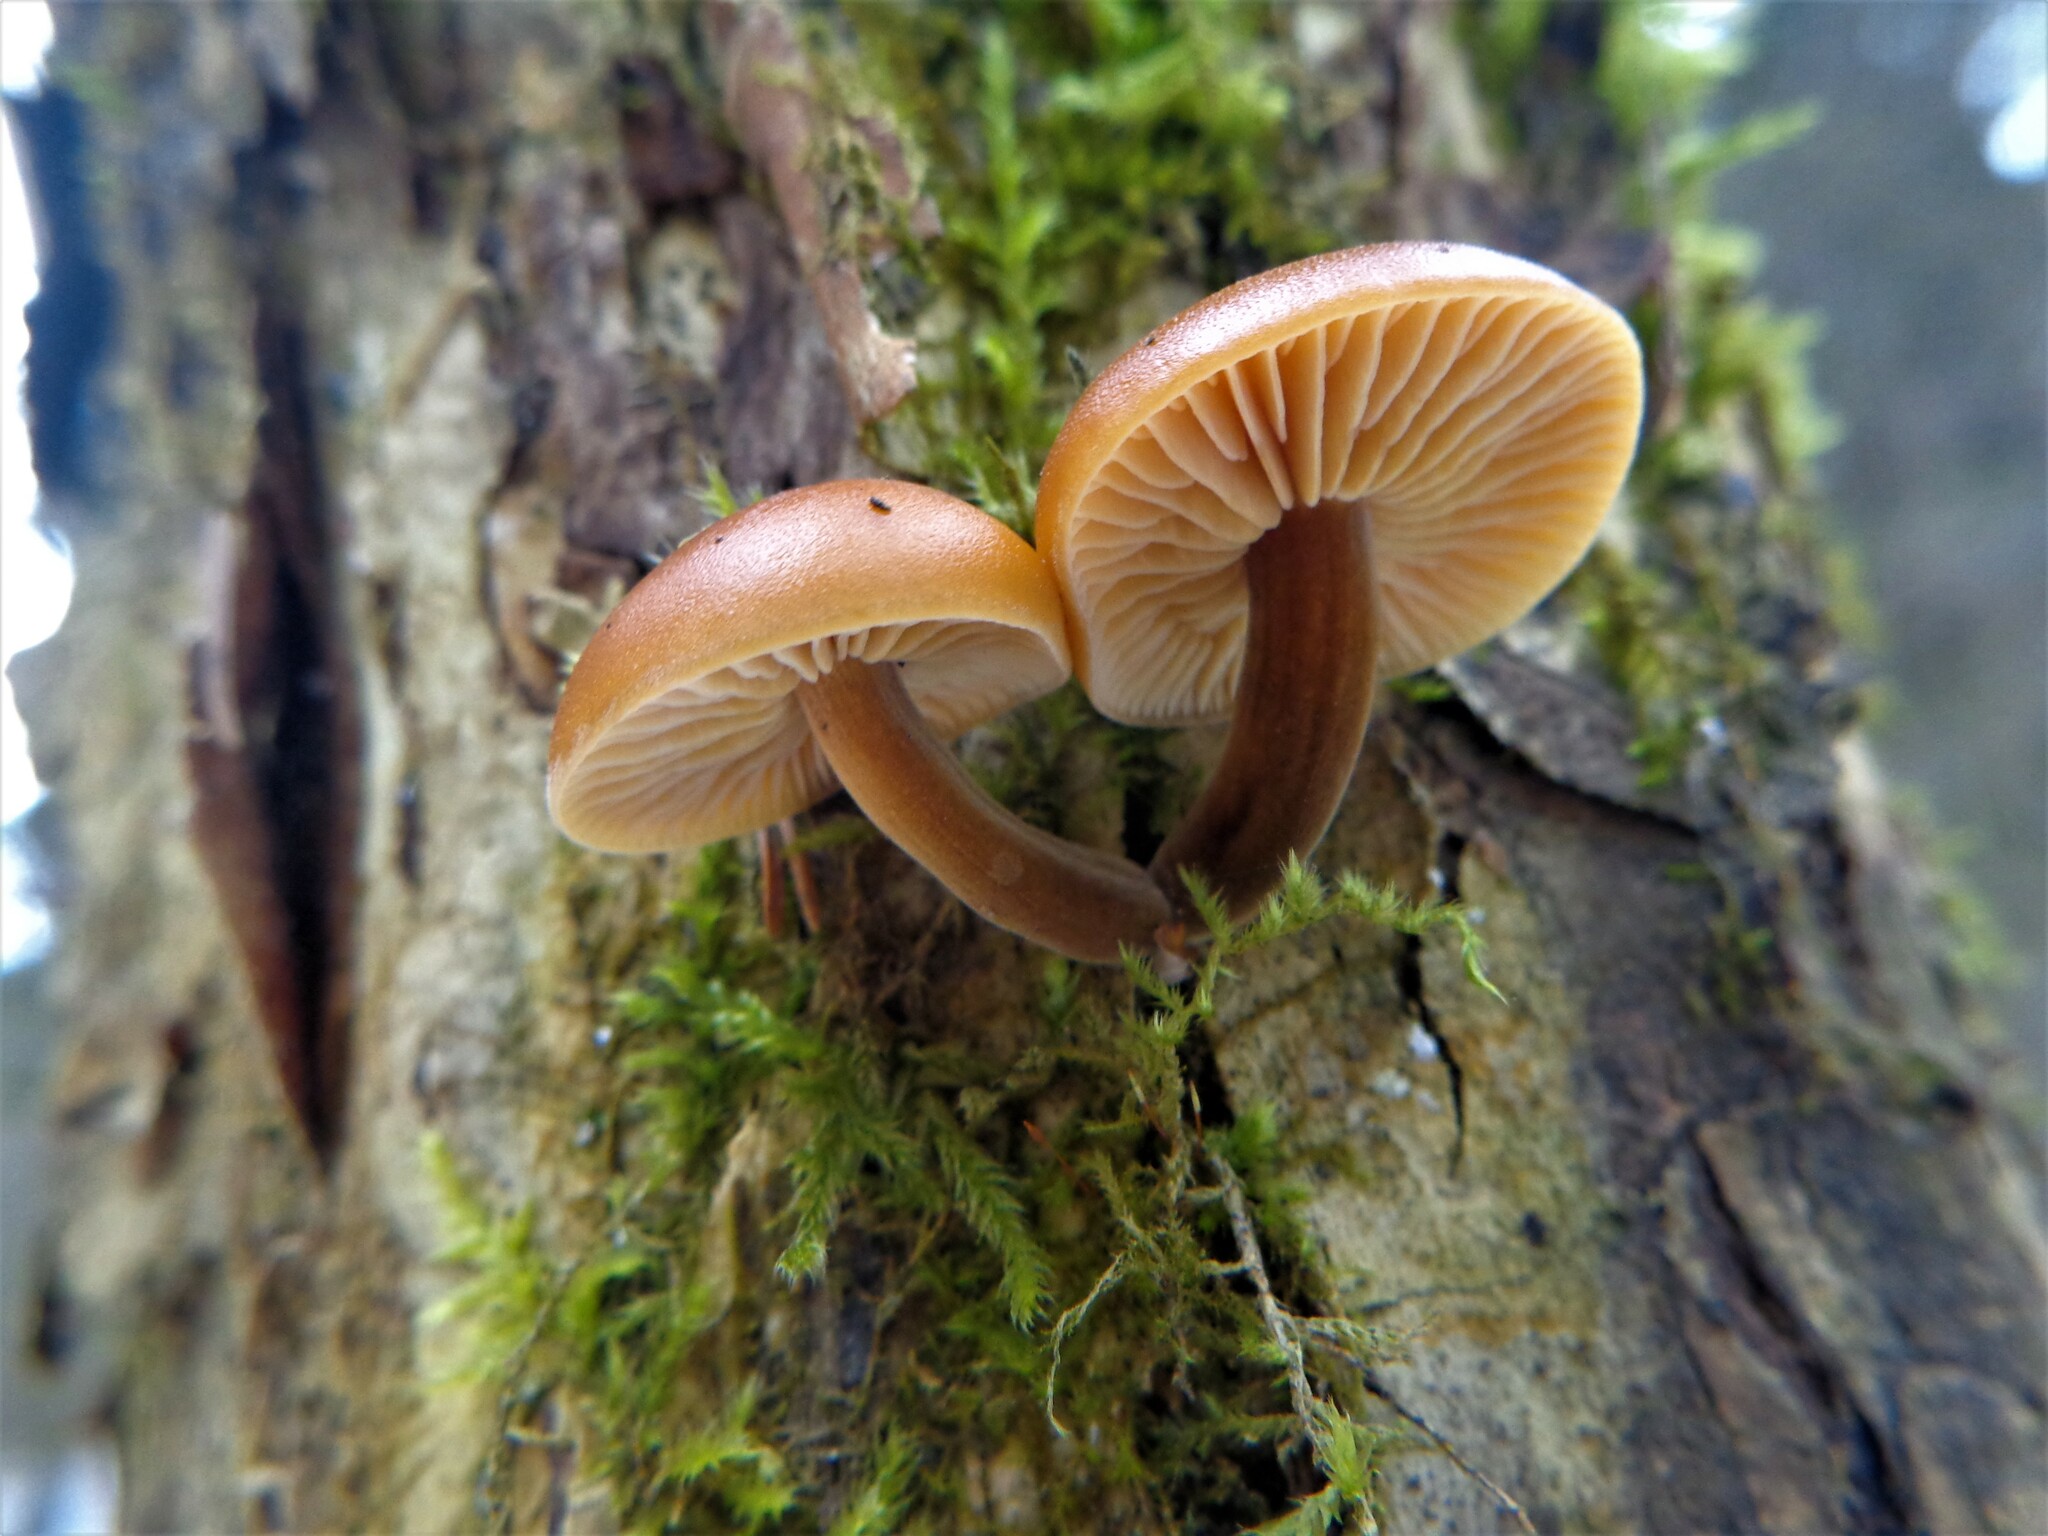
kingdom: Fungi
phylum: Basidiomycota
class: Agaricomycetes
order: Agaricales
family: Physalacriaceae
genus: Flammulina
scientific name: Flammulina
